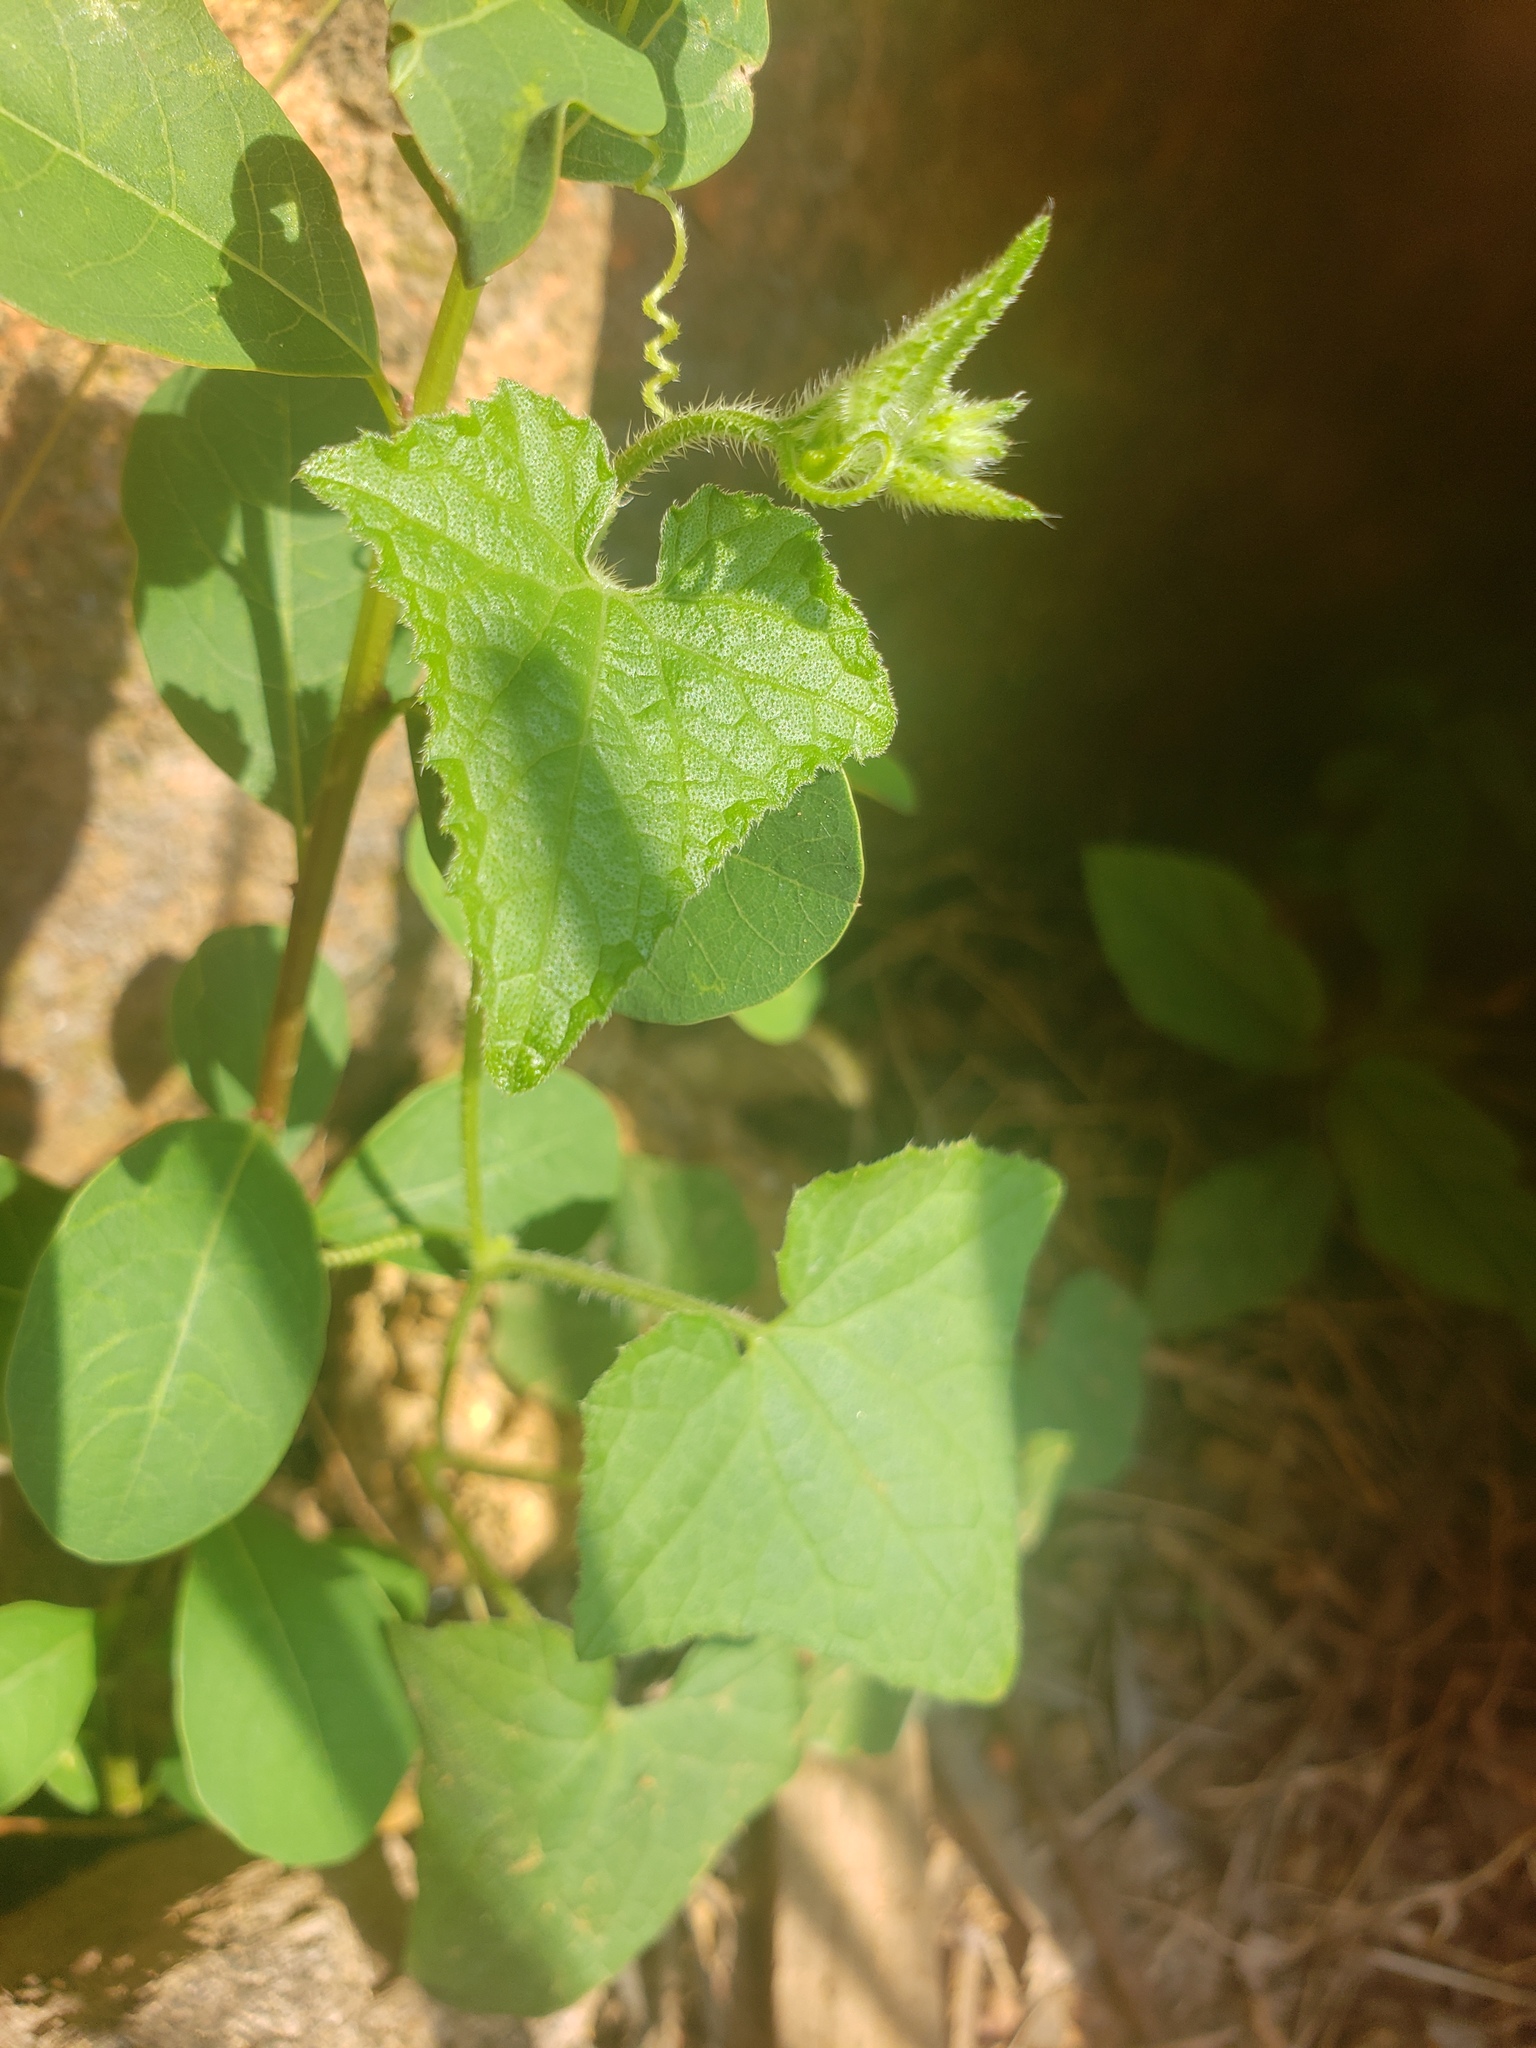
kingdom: Plantae
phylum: Tracheophyta
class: Magnoliopsida
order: Cucurbitales
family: Cucurbitaceae
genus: Cucumis
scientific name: Cucumis maderaspatanus
